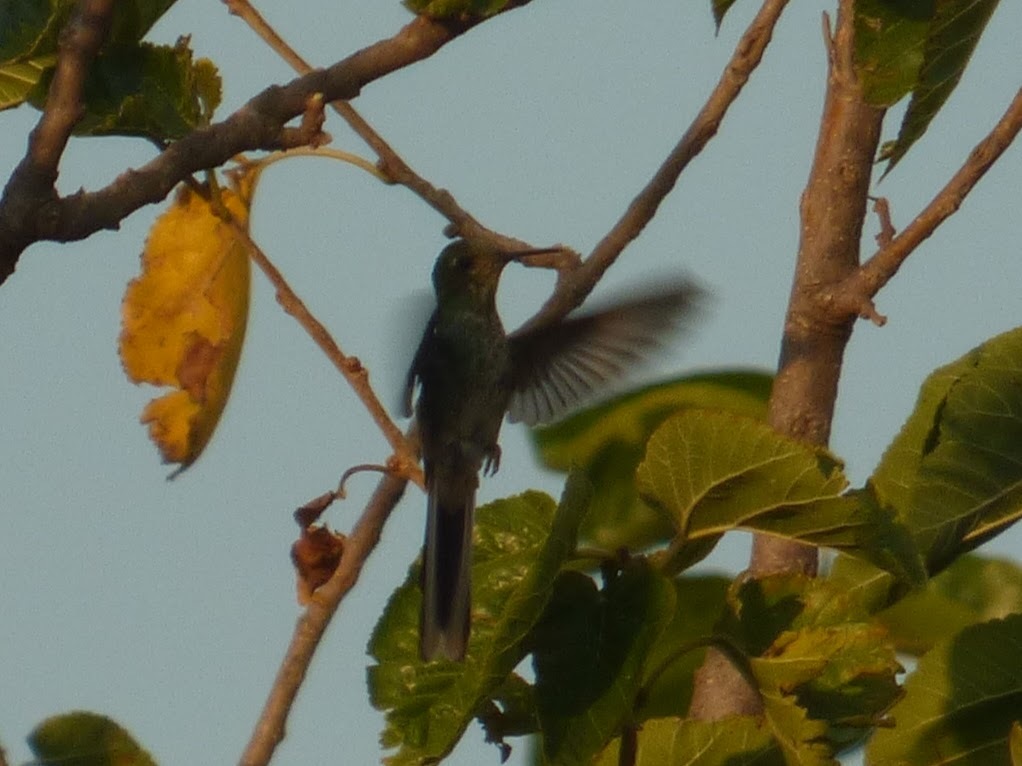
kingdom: Animalia
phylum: Chordata
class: Aves
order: Apodiformes
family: Trochilidae
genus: Sappho
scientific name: Sappho sparganurus
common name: Red-tailed comet
